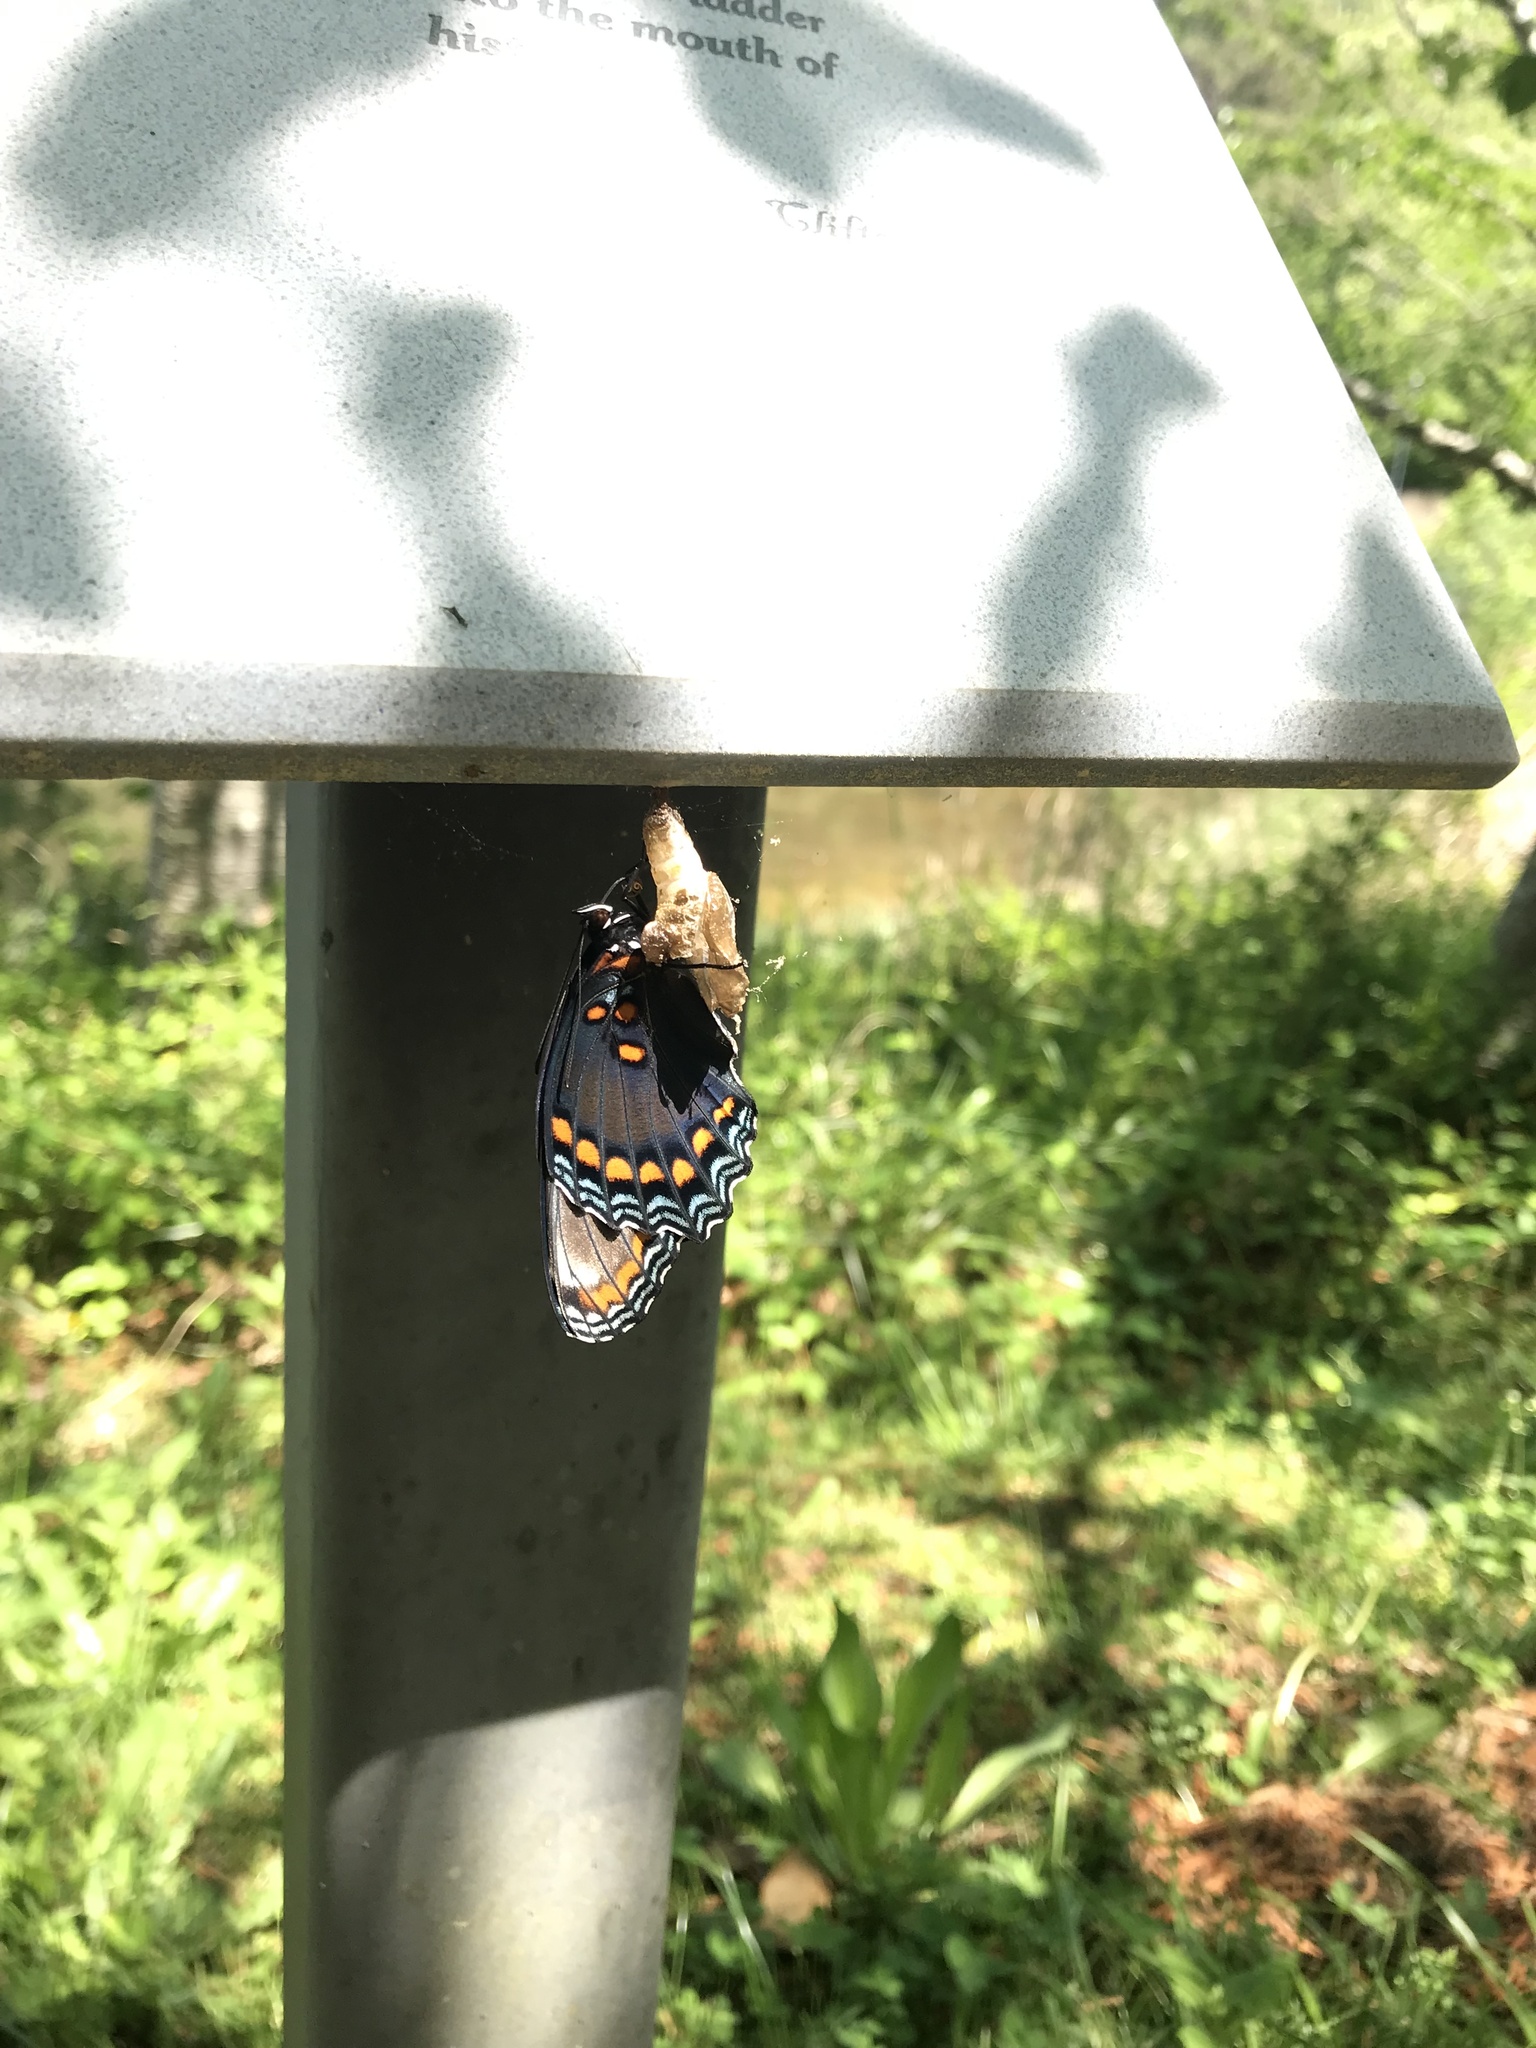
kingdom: Animalia
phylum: Arthropoda
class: Insecta
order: Lepidoptera
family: Nymphalidae
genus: Limenitis
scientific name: Limenitis astyanax
